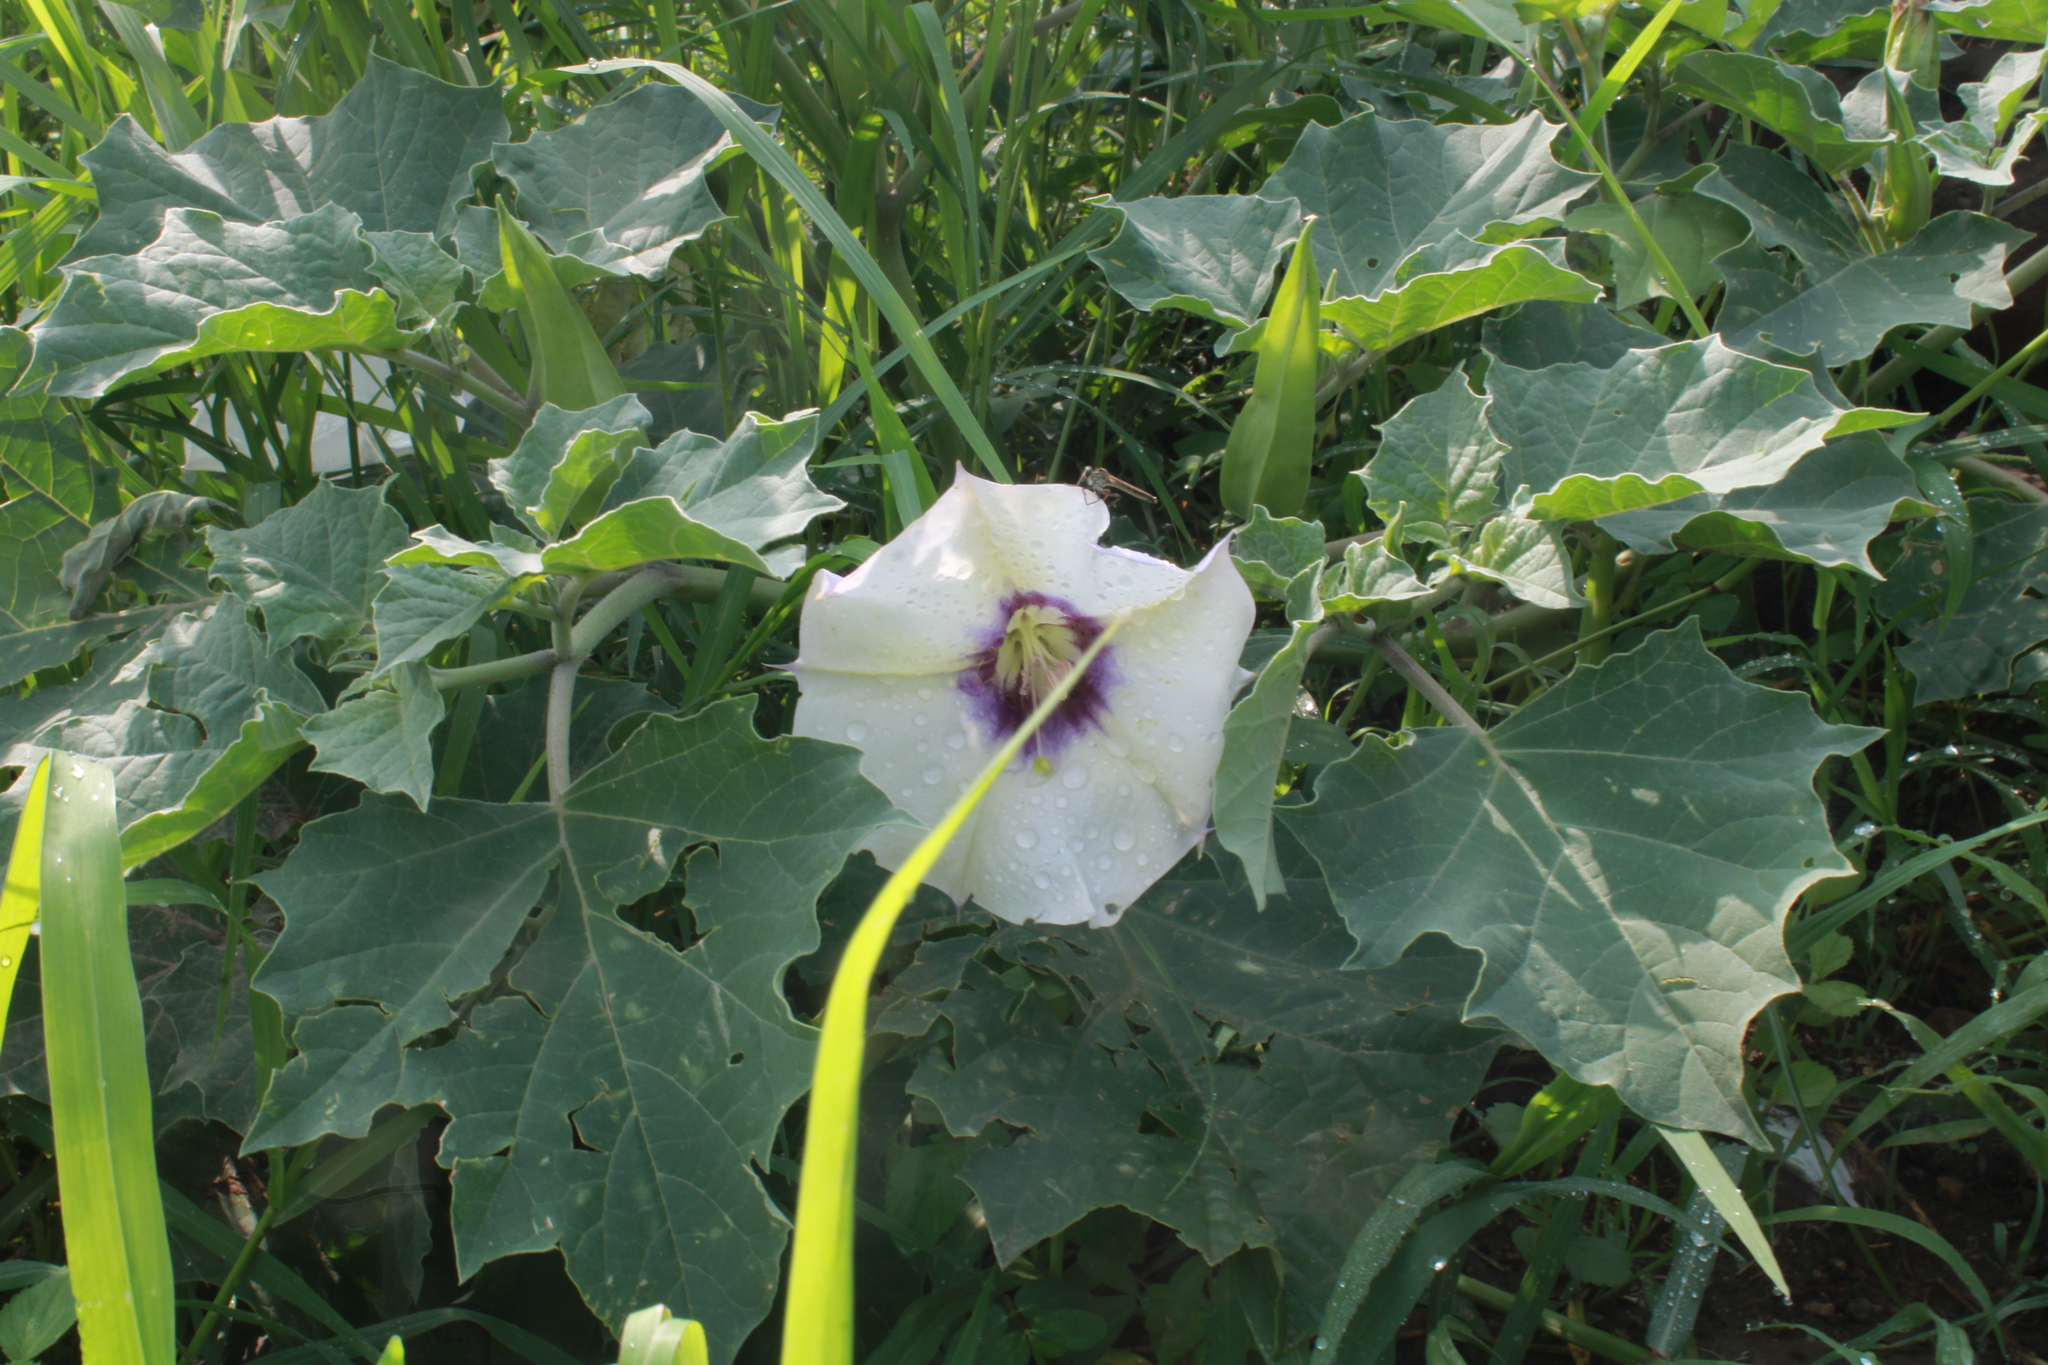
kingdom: Plantae
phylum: Tracheophyta
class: Magnoliopsida
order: Solanales
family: Solanaceae
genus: Datura
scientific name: Datura discolor
